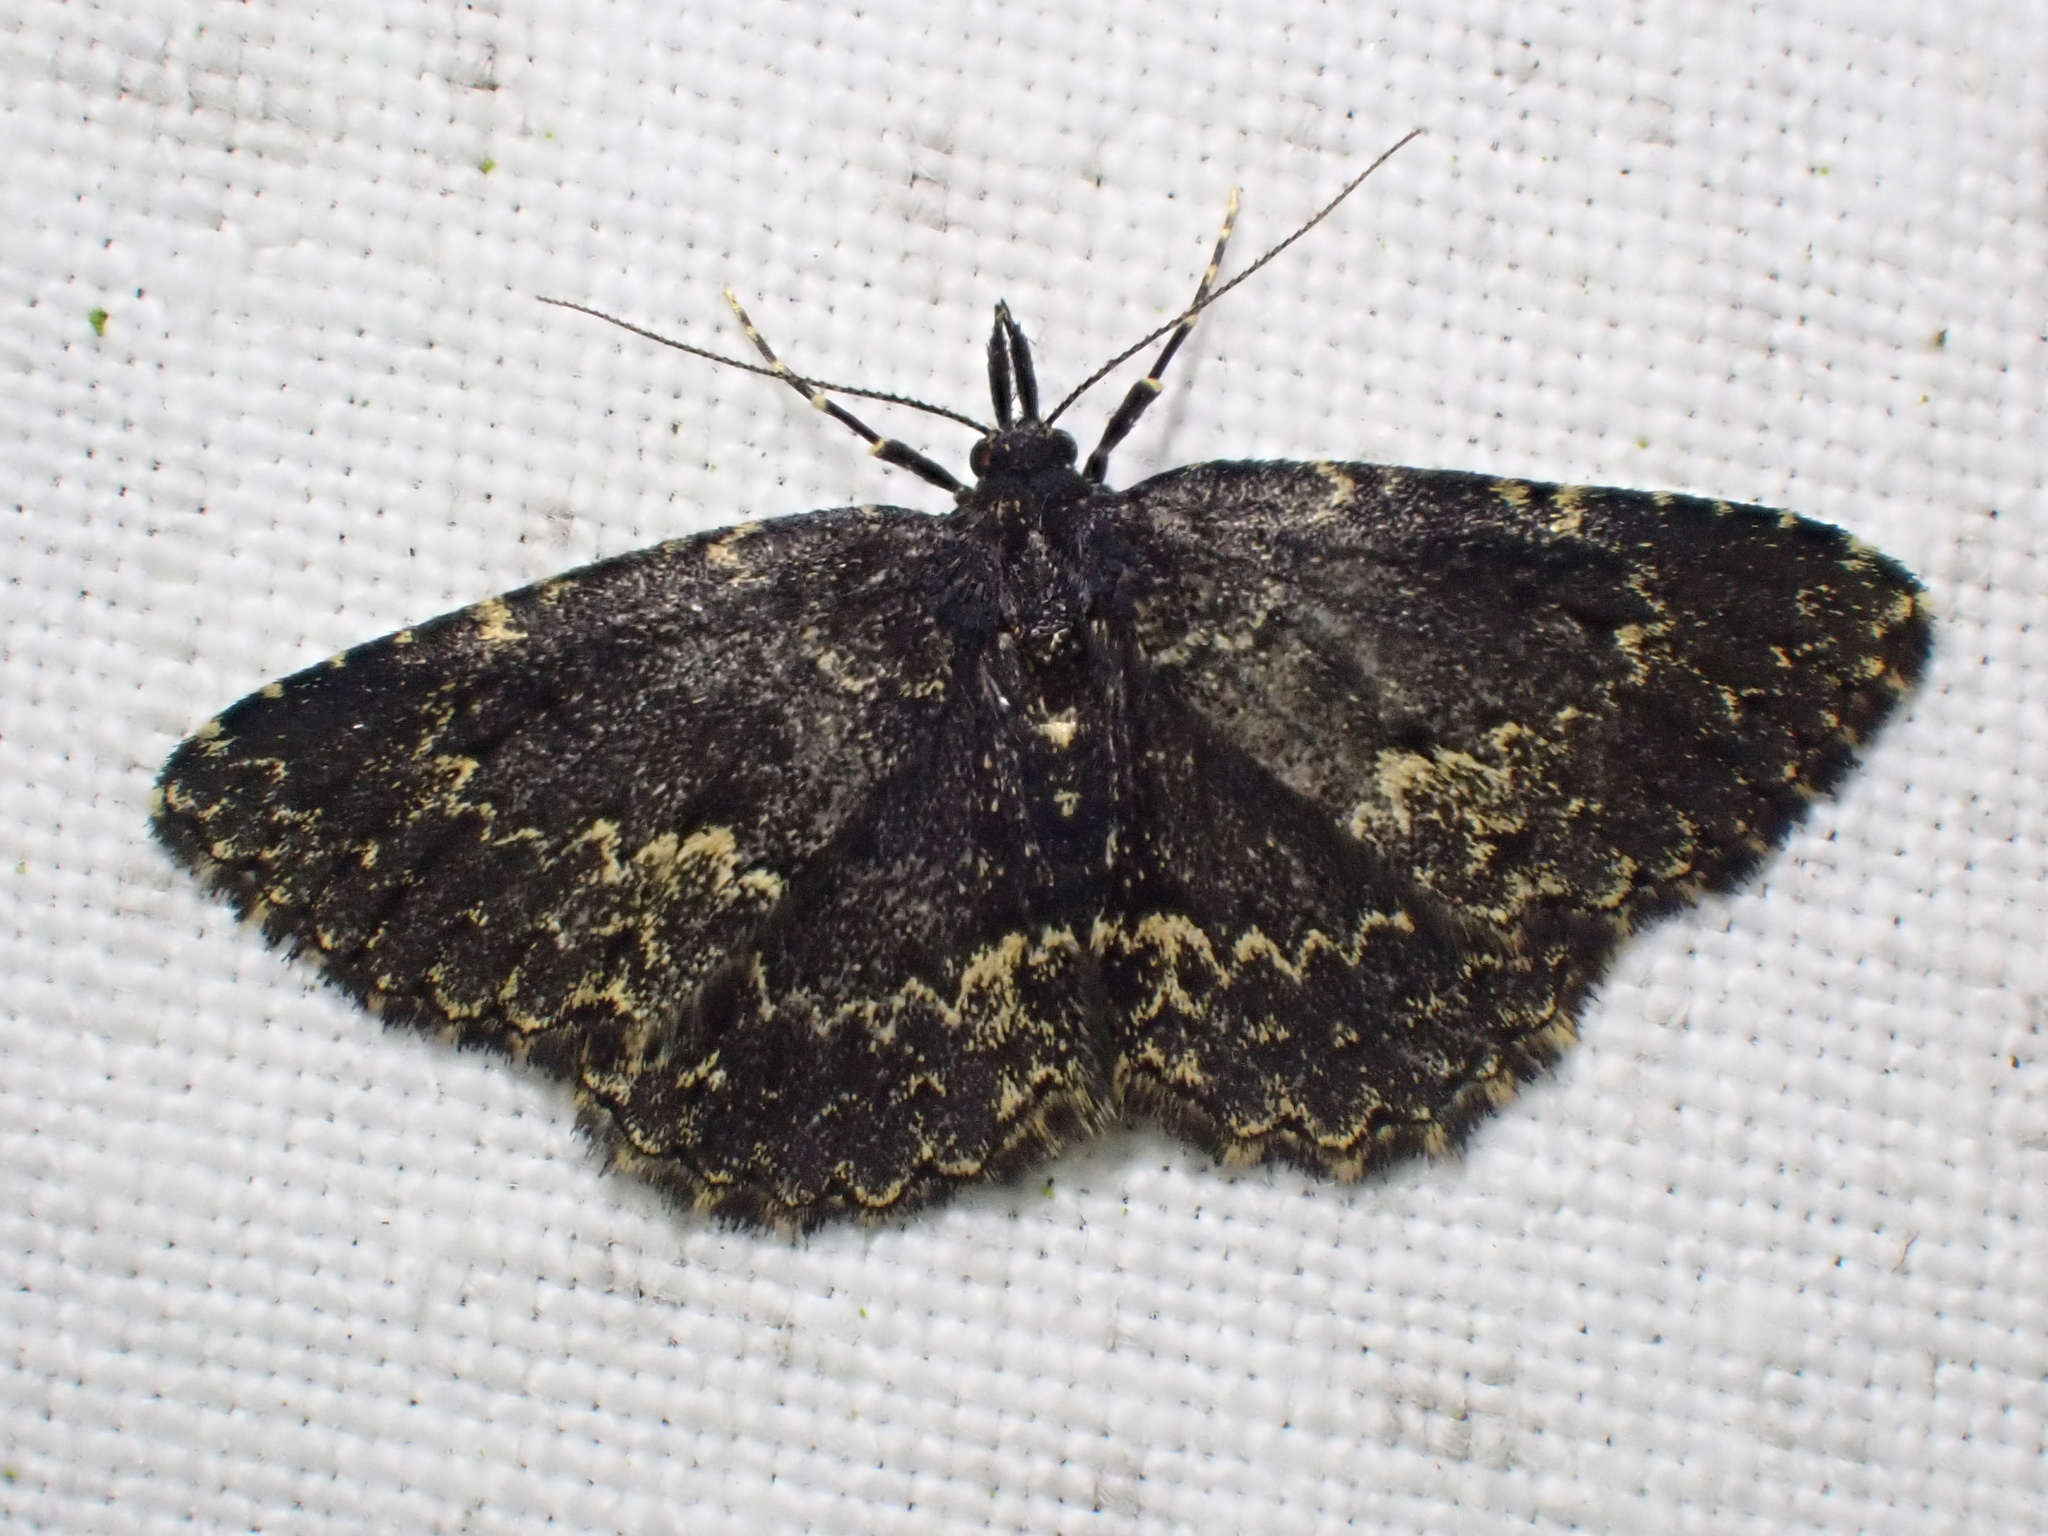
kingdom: Animalia
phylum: Arthropoda
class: Insecta
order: Lepidoptera
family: Erebidae
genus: Parascotia
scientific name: Parascotia fuliginaria
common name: Waved black
